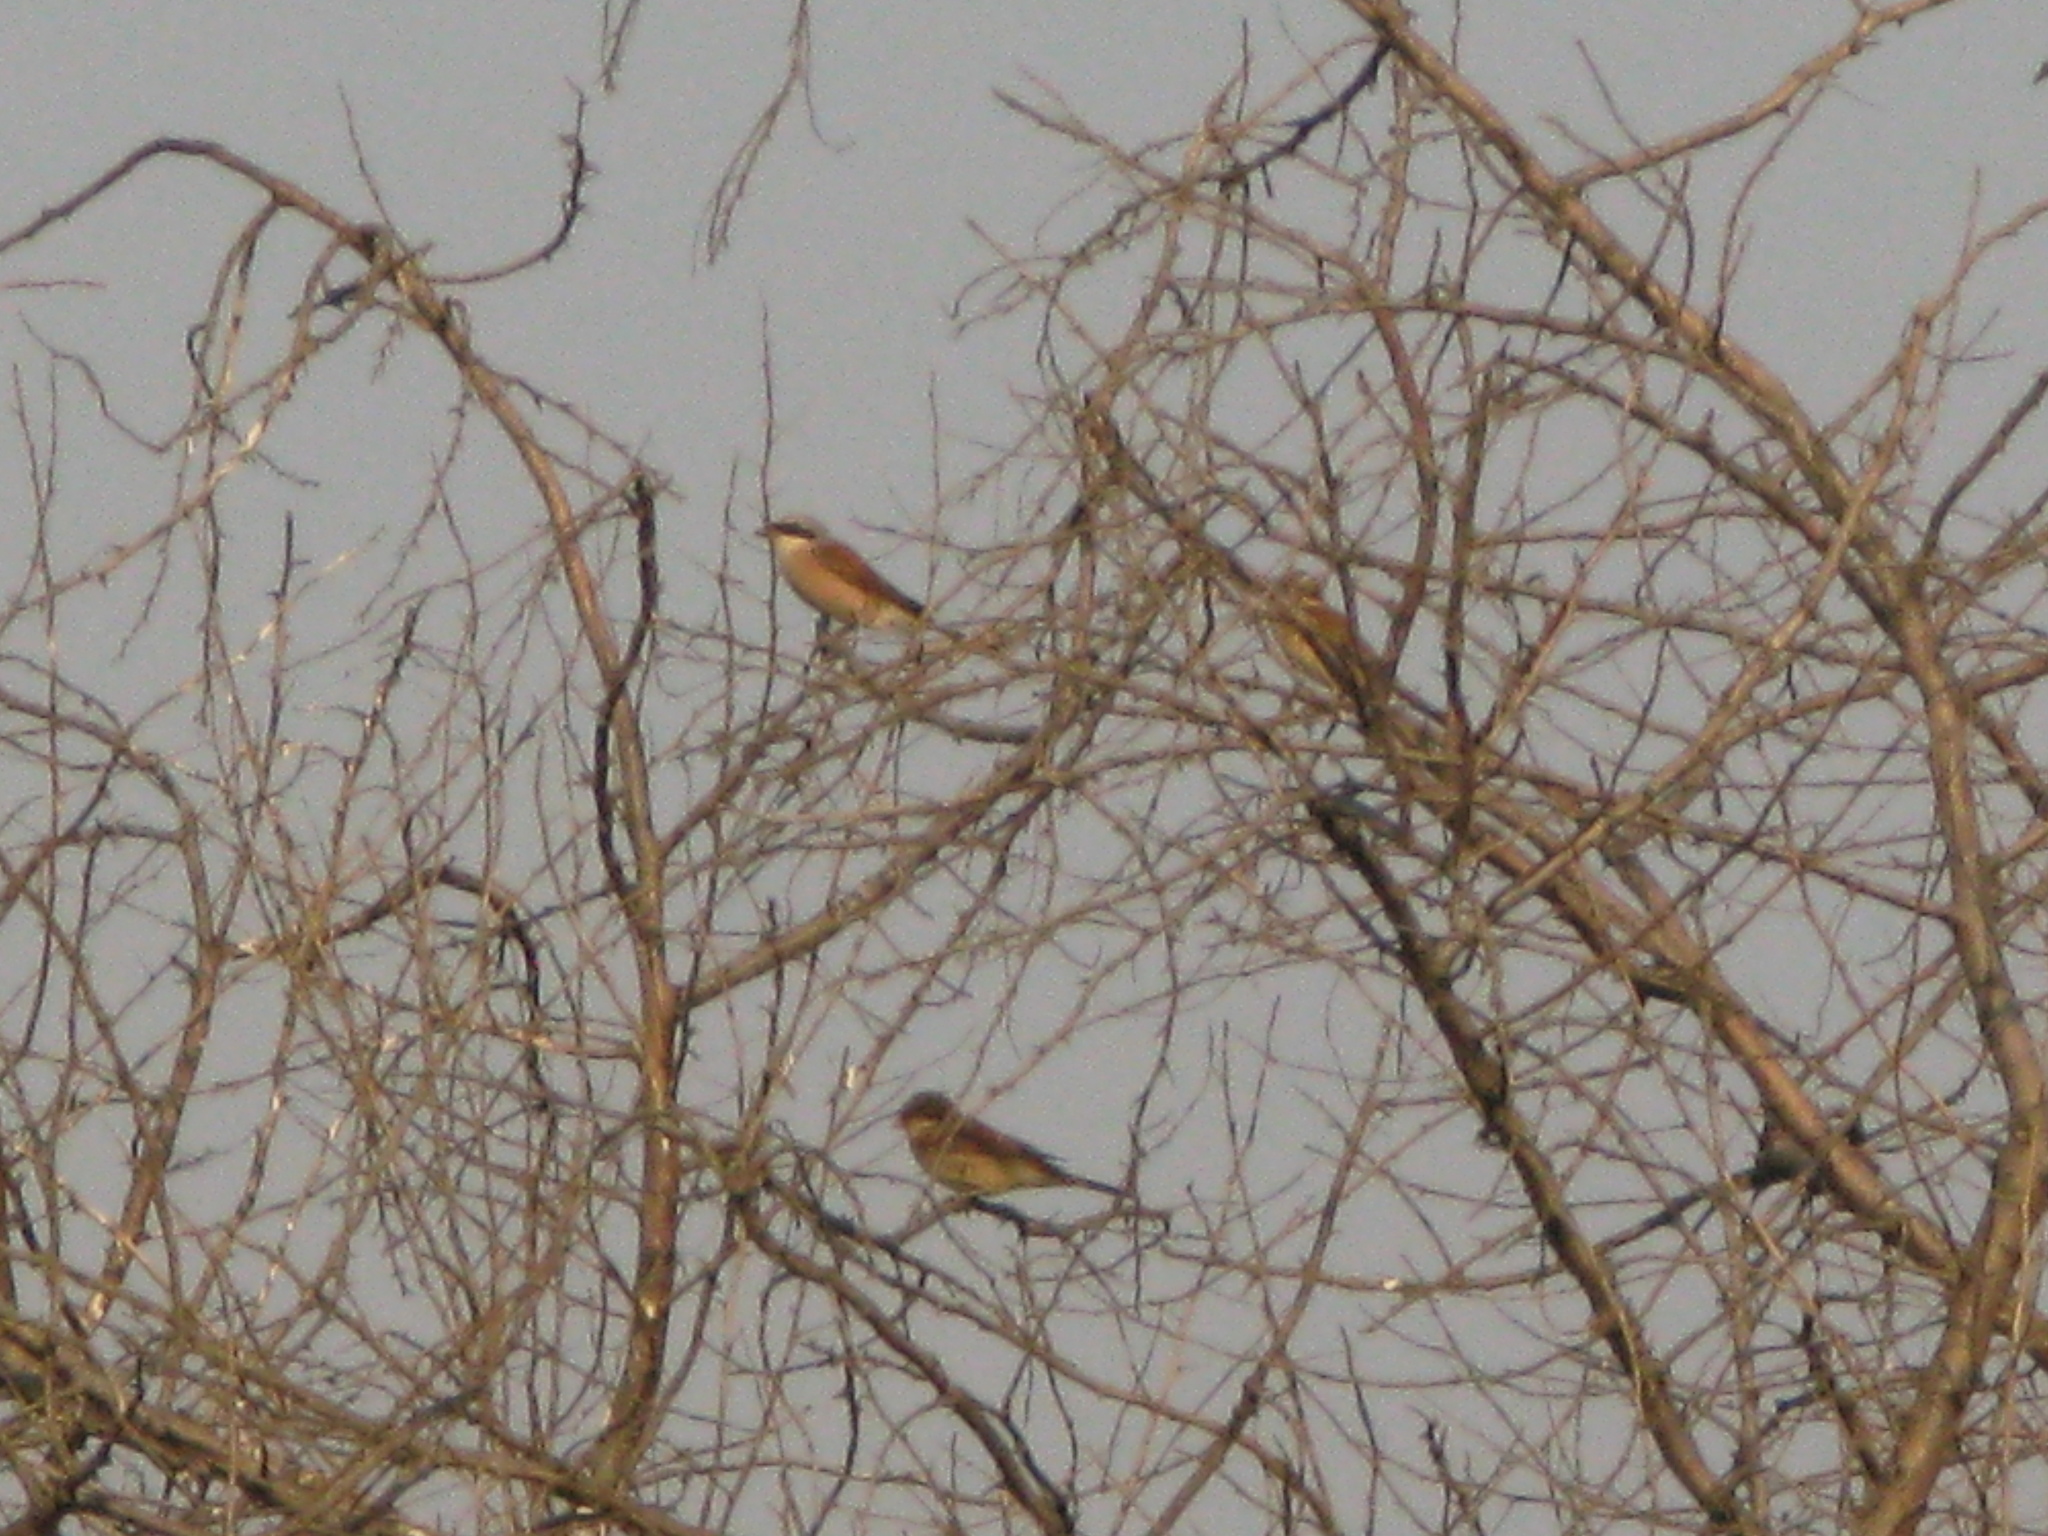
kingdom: Animalia
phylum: Chordata
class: Aves
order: Passeriformes
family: Laniidae
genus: Lanius
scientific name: Lanius collurio
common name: Red-backed shrike
